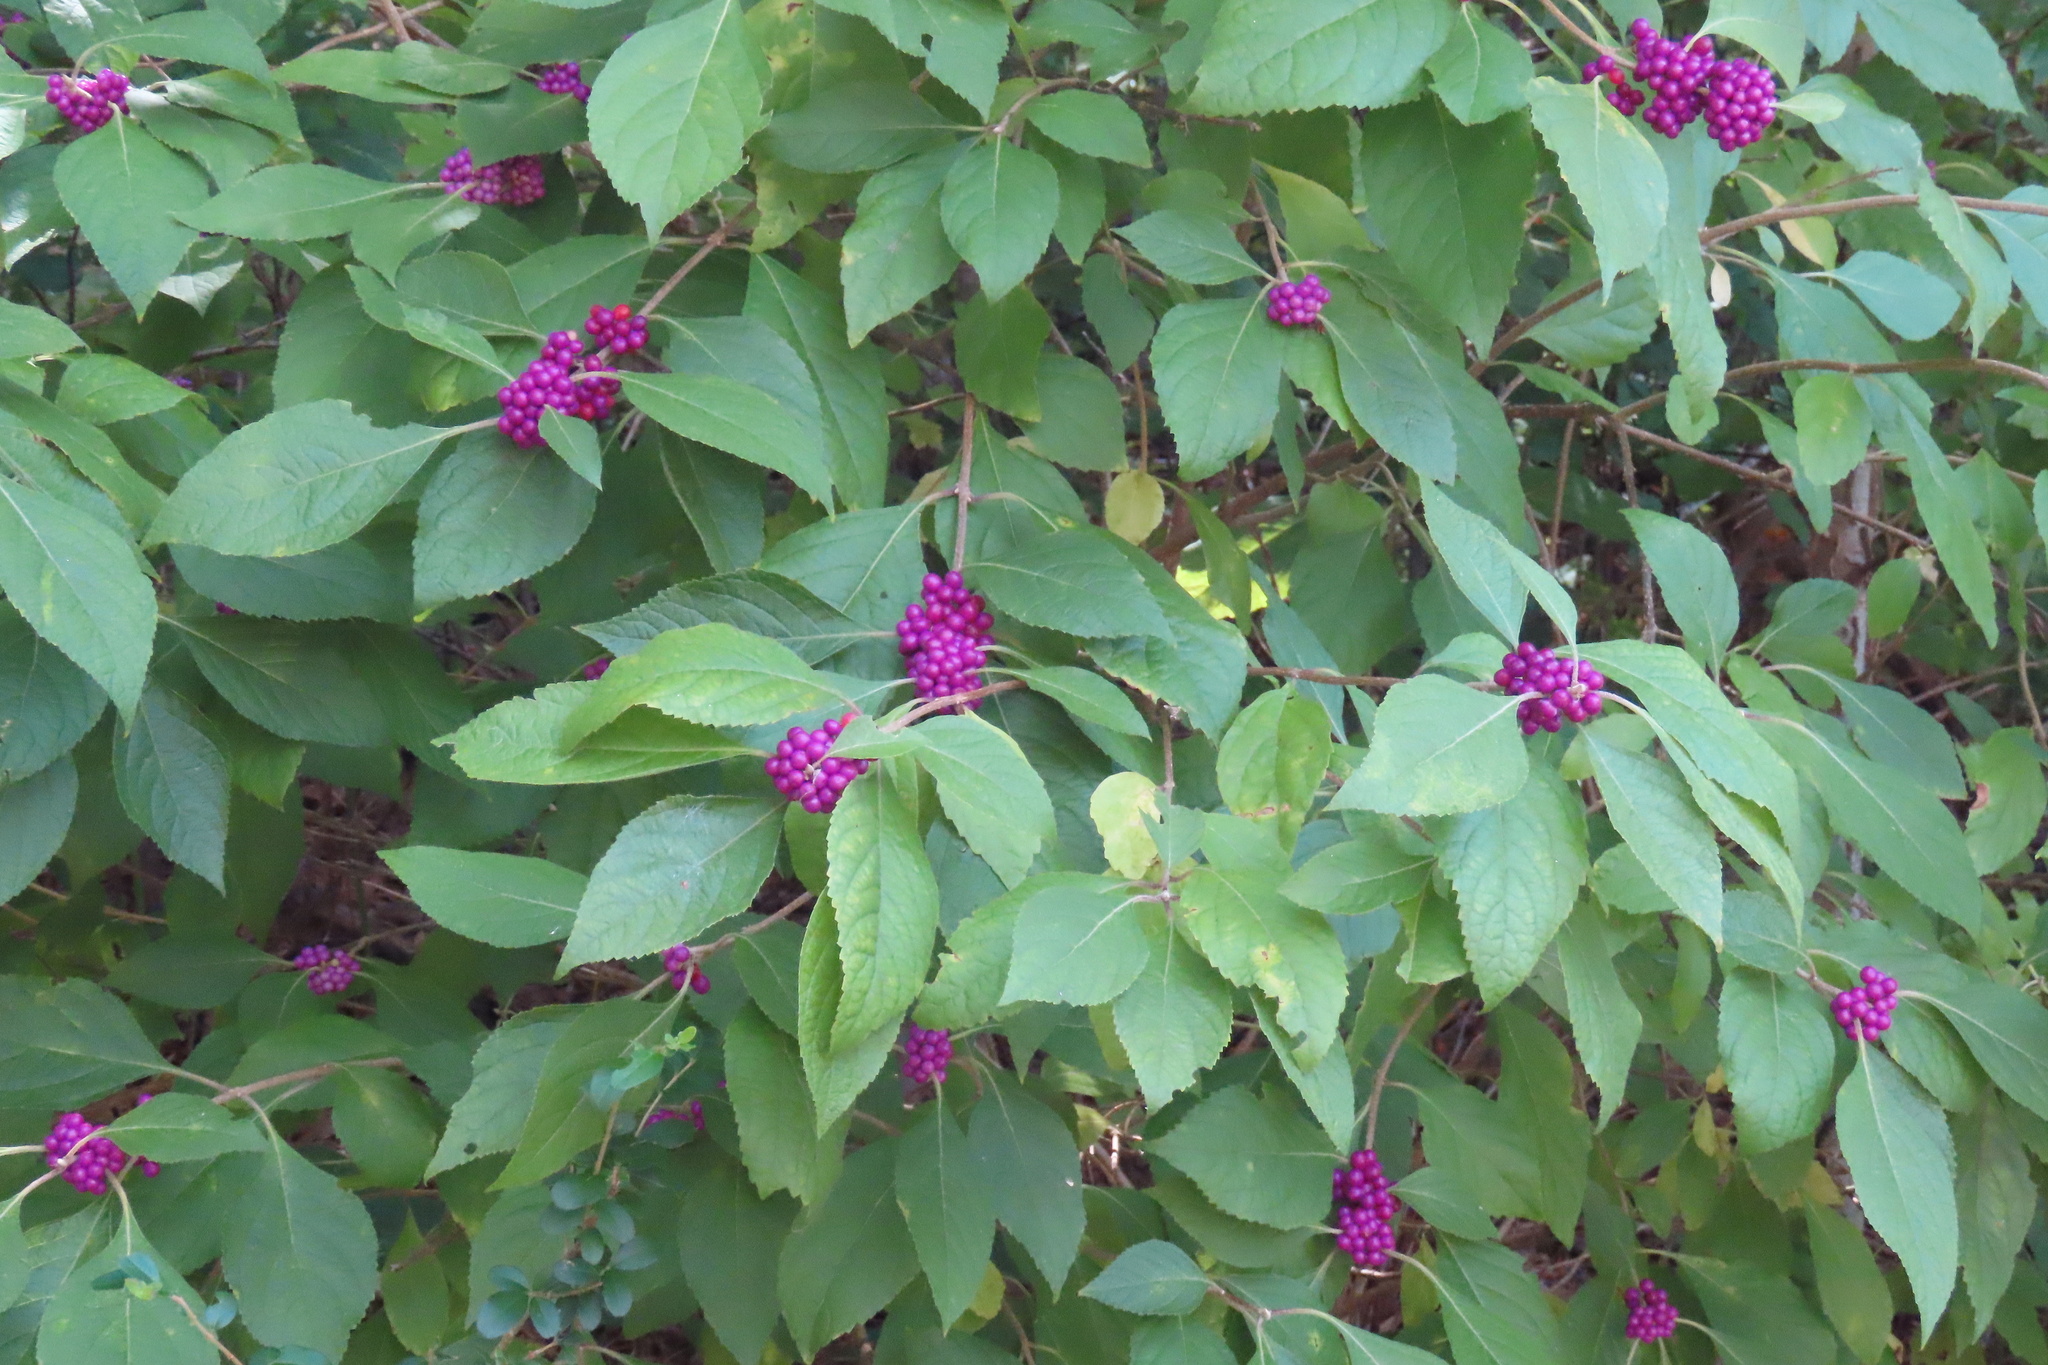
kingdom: Plantae
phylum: Tracheophyta
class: Magnoliopsida
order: Lamiales
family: Lamiaceae
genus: Callicarpa
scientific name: Callicarpa americana
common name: American beautyberry
